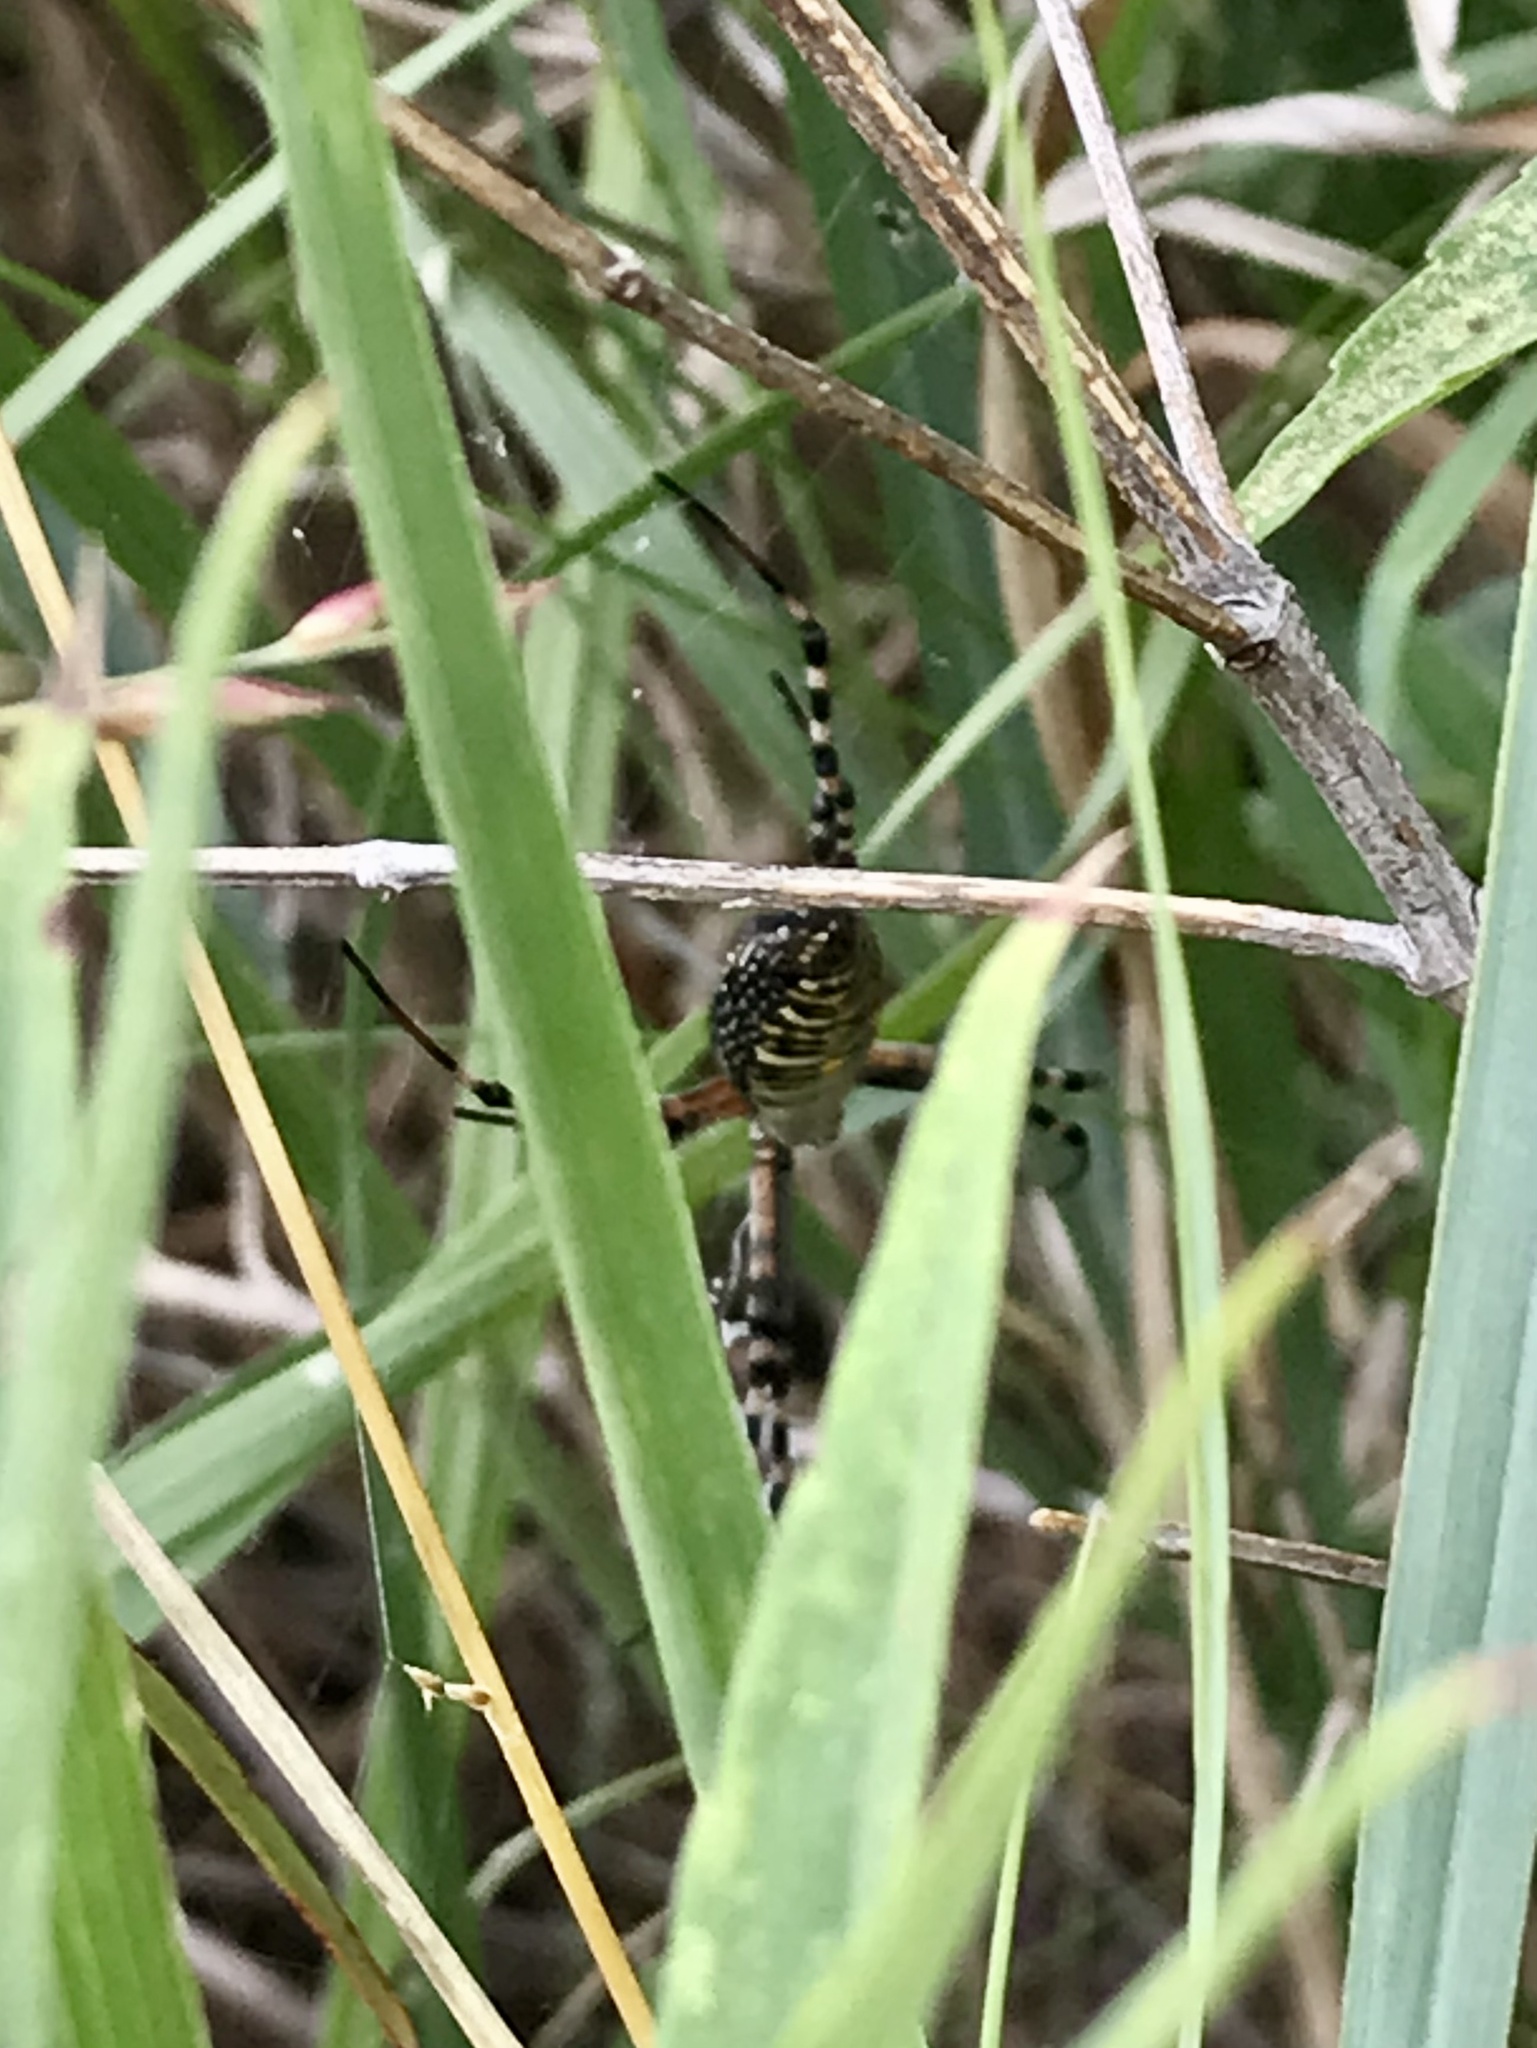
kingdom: Animalia
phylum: Arthropoda
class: Arachnida
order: Araneae
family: Araneidae
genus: Argiope
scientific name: Argiope trifasciata
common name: Banded garden spider
